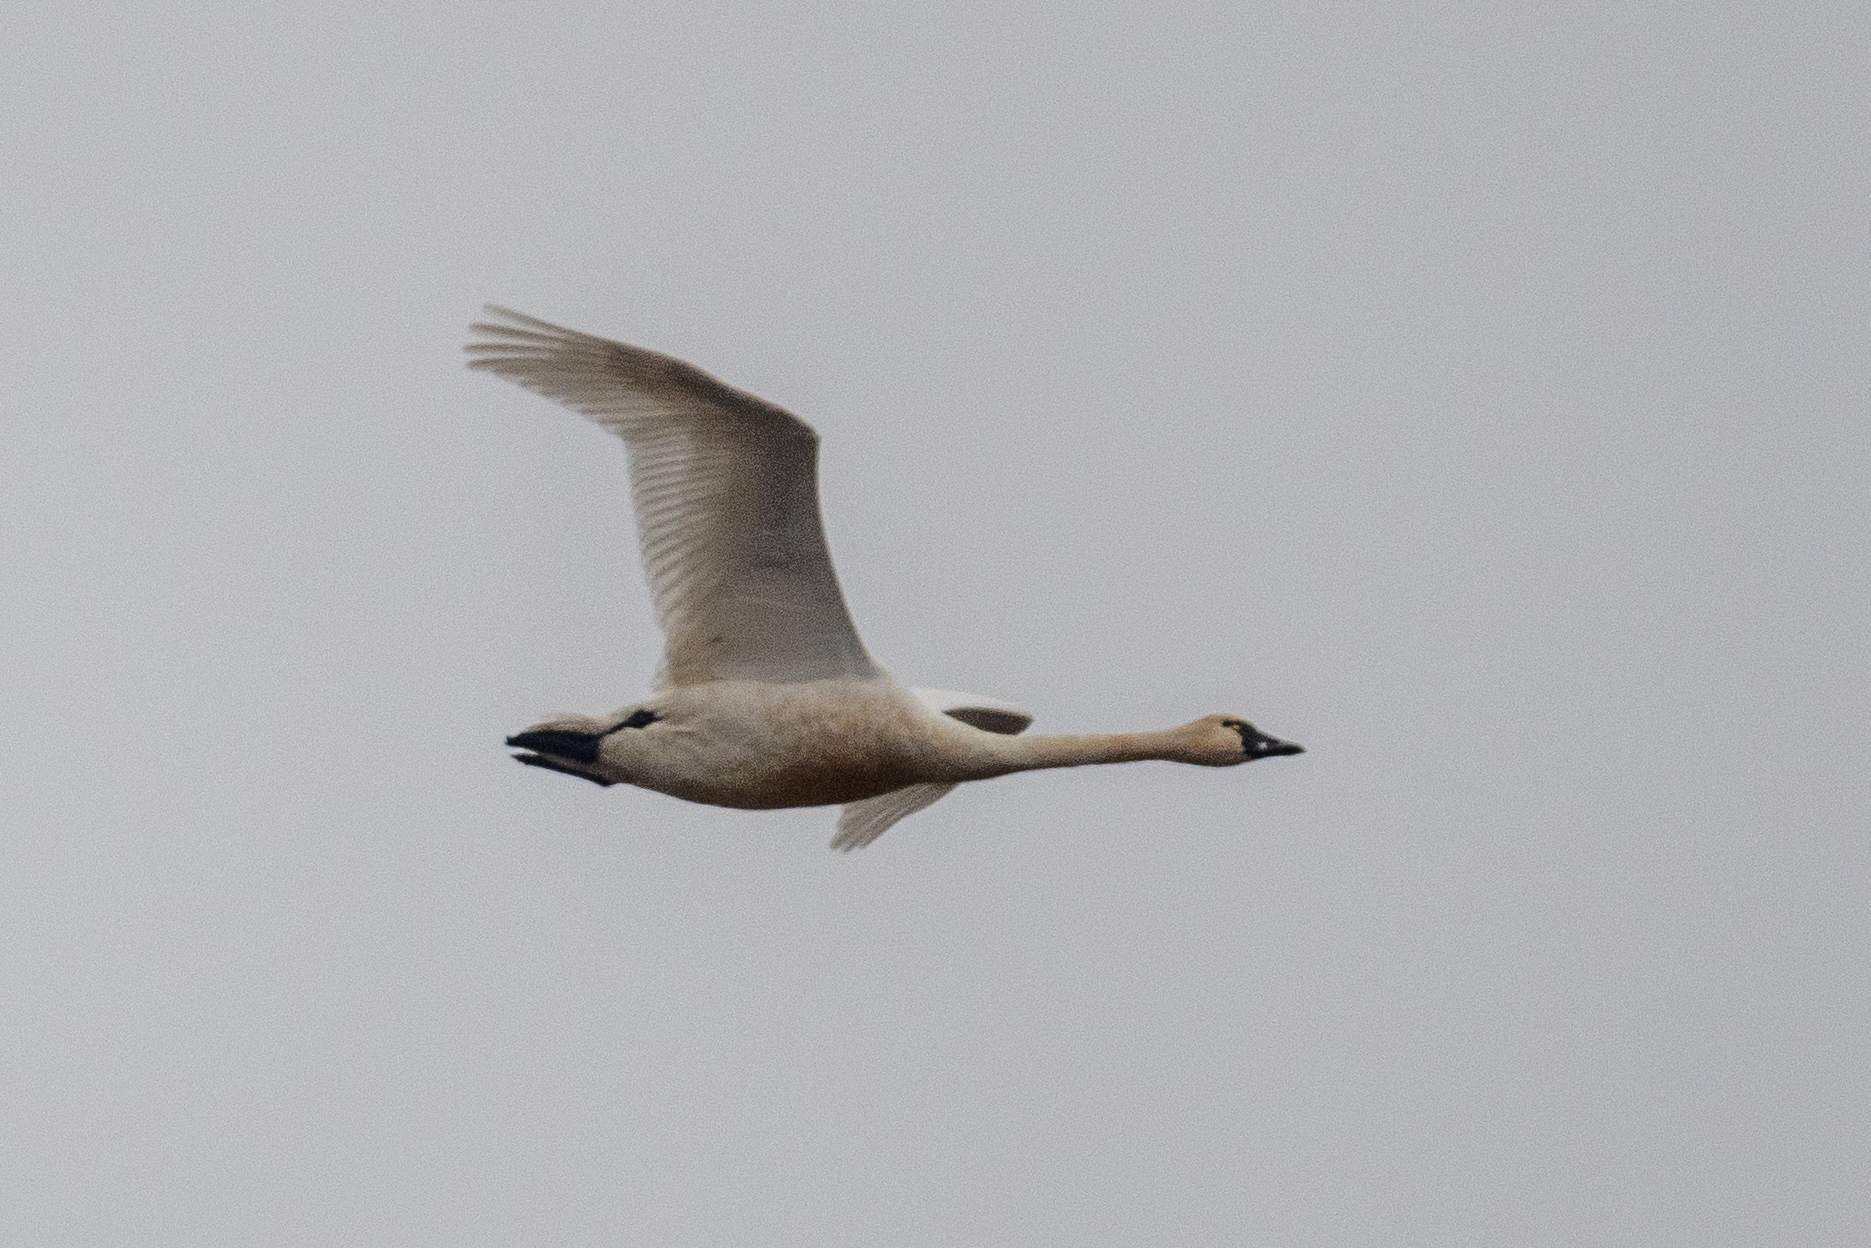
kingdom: Animalia
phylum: Chordata
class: Aves
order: Anseriformes
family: Anatidae
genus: Cygnus
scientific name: Cygnus columbianus
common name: Tundra swan
